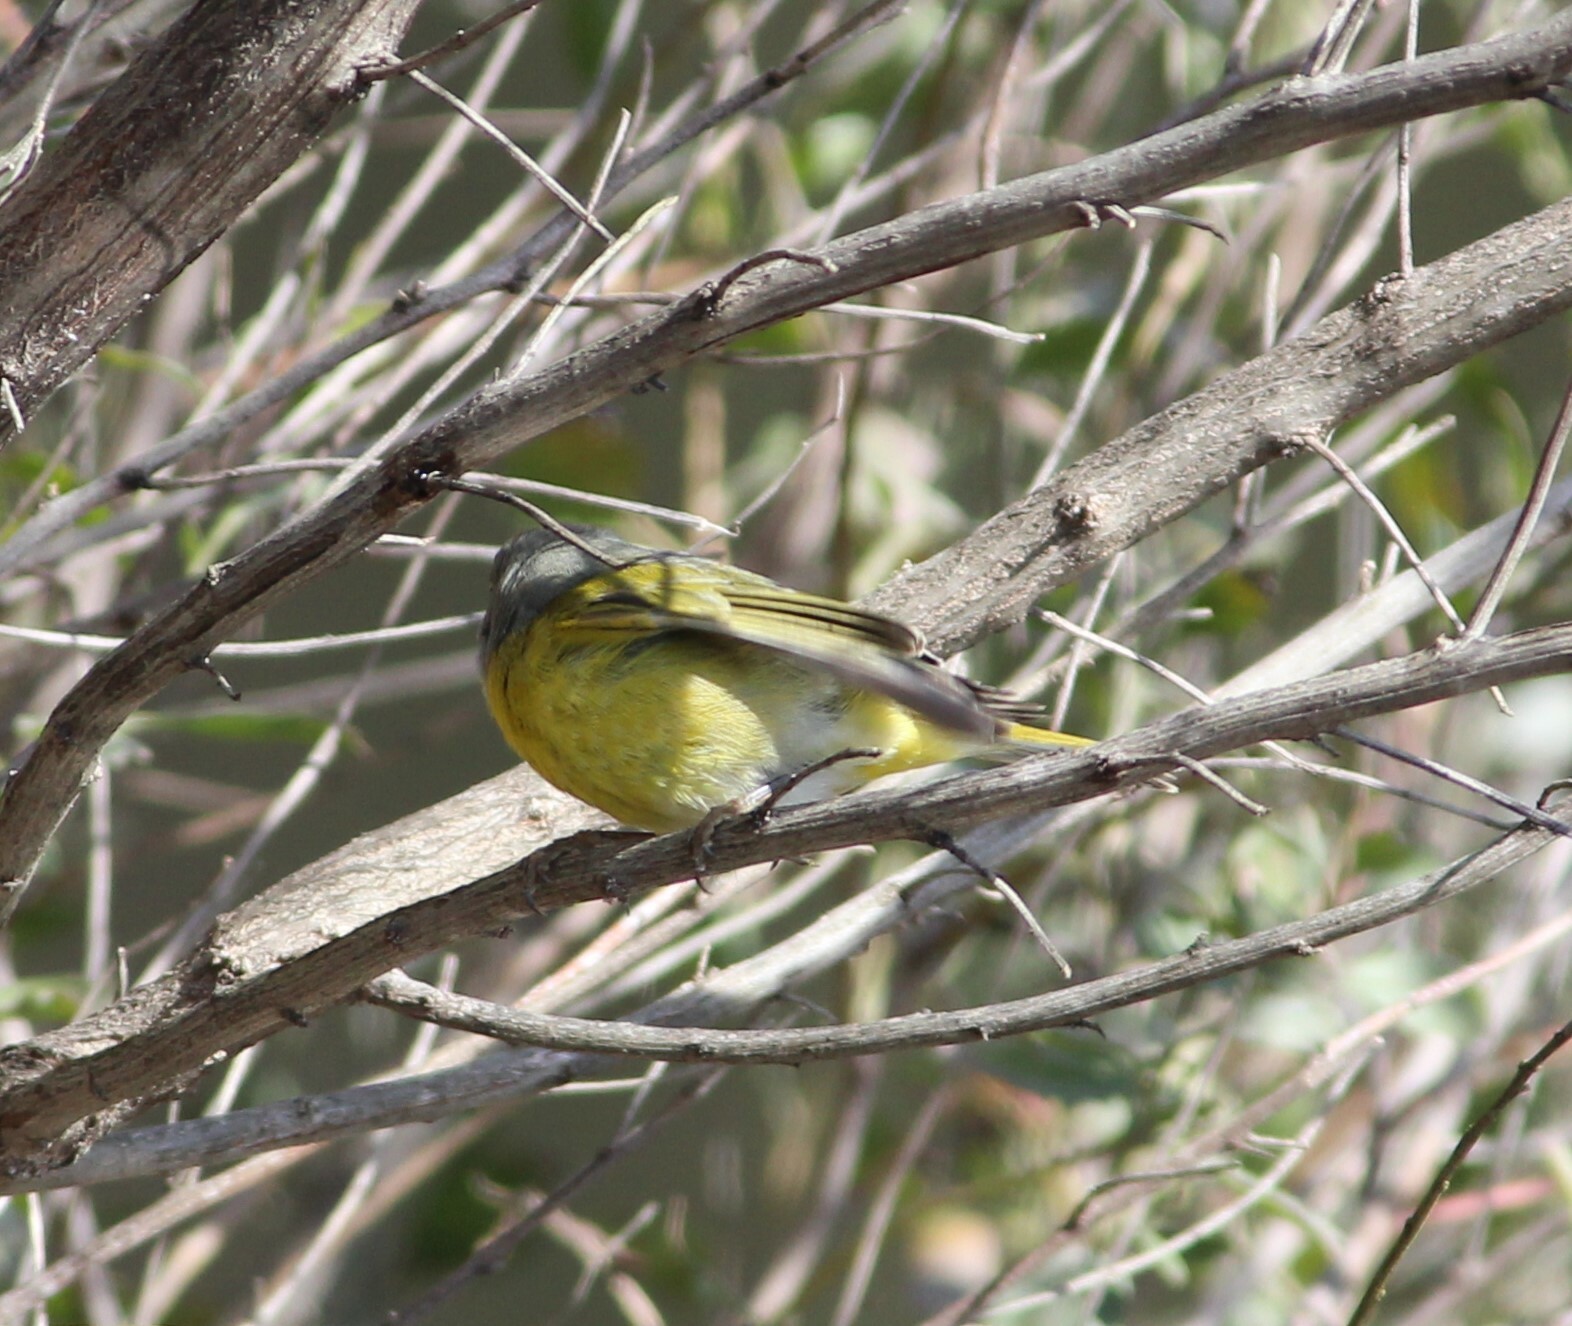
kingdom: Animalia
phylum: Chordata
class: Aves
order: Passeriformes
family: Parulidae
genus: Leiothlypis
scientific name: Leiothlypis ruficapilla
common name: Nashville warbler
